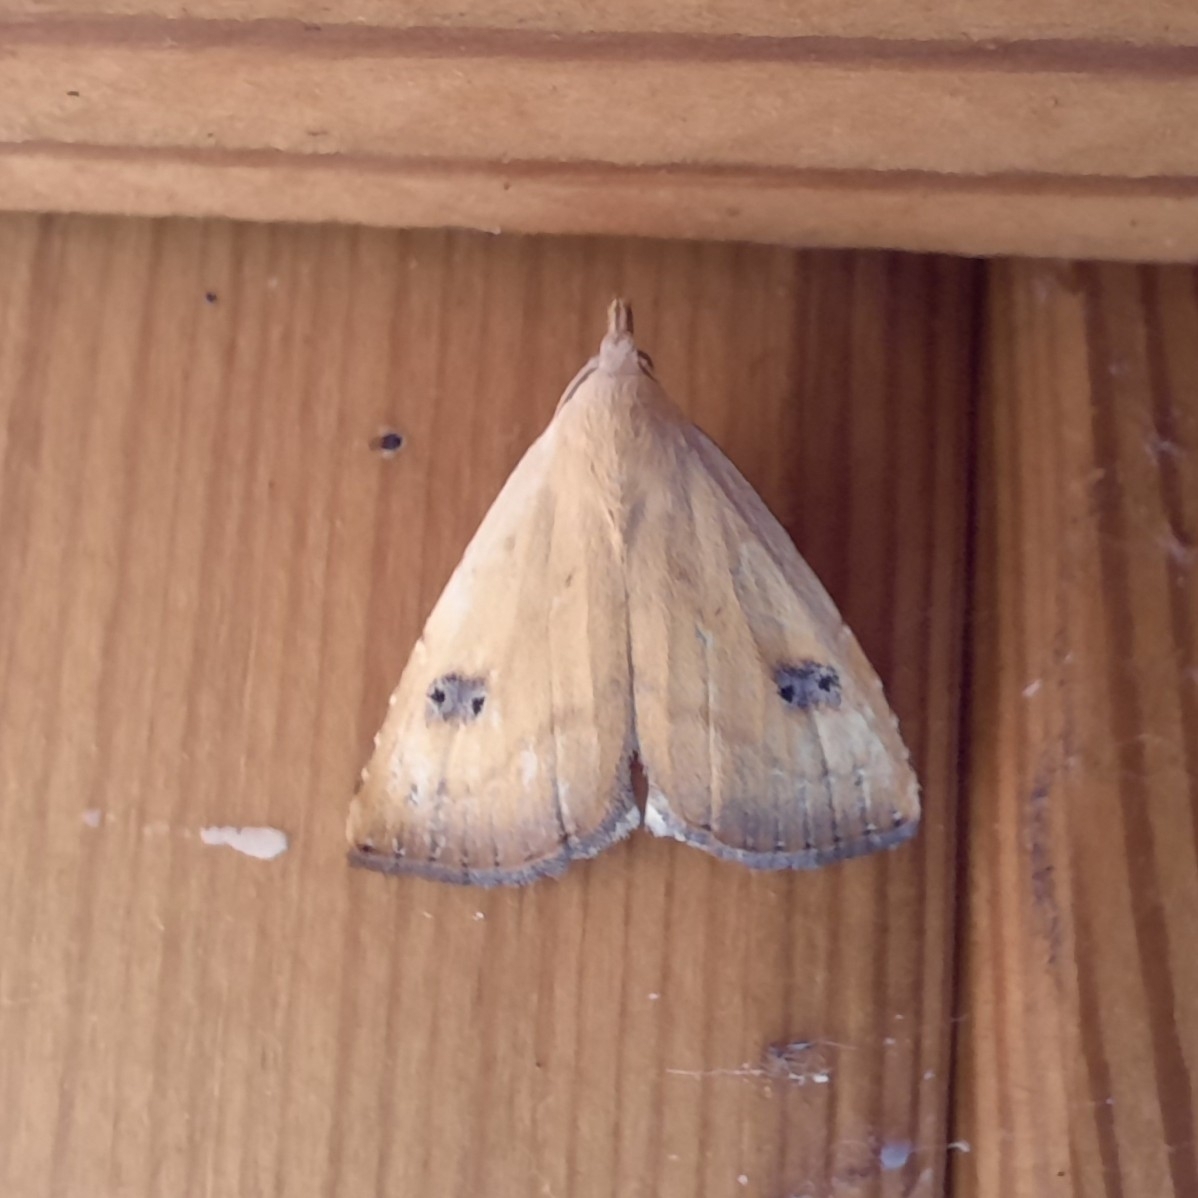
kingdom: Animalia
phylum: Arthropoda
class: Insecta
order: Lepidoptera
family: Erebidae
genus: Rivula
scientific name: Rivula sericealis
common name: Straw dot
